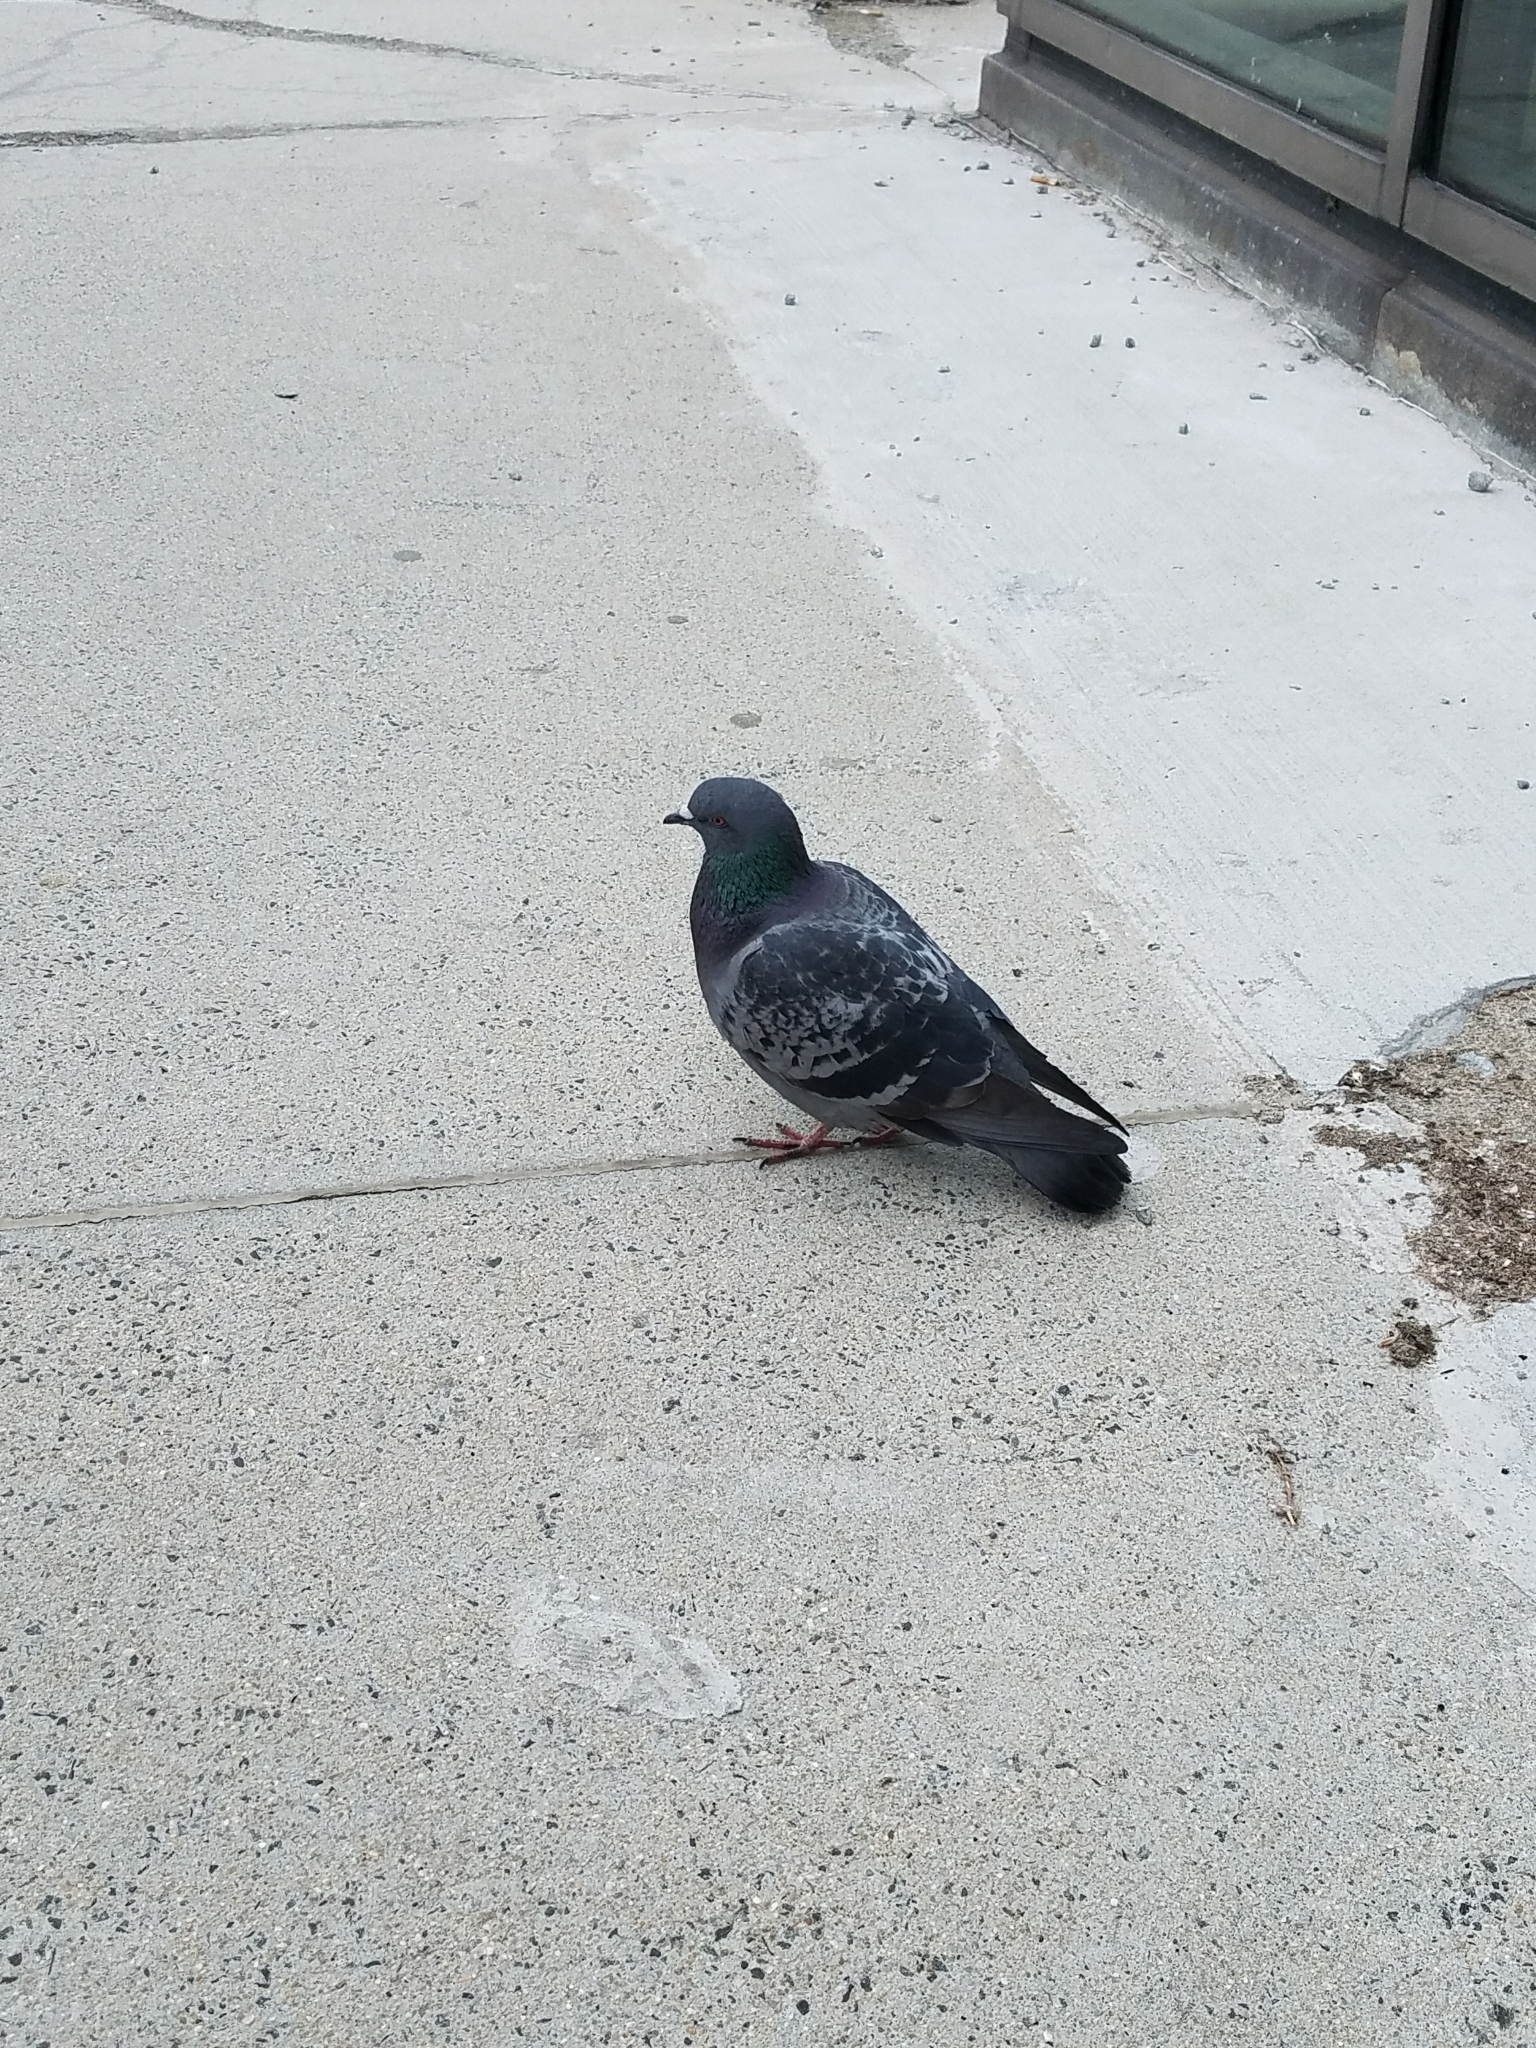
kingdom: Animalia
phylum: Chordata
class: Aves
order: Columbiformes
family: Columbidae
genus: Columba
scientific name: Columba livia
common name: Rock pigeon
